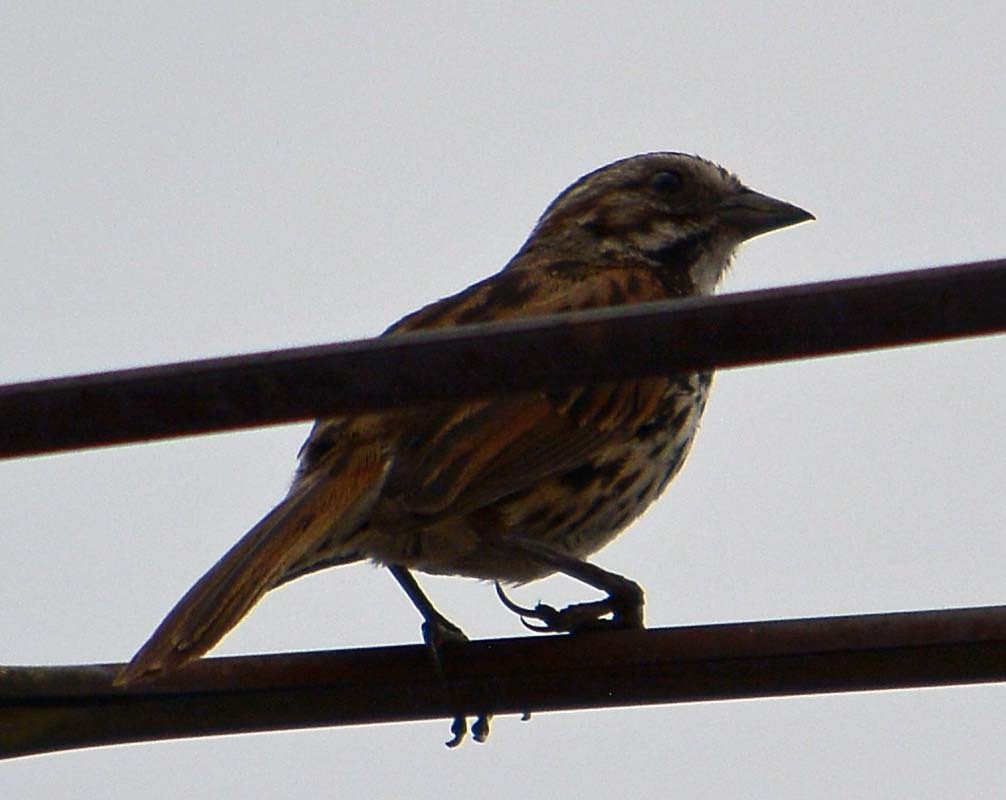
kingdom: Animalia
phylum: Chordata
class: Aves
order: Passeriformes
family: Passerellidae
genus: Melospiza
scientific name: Melospiza melodia
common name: Song sparrow
